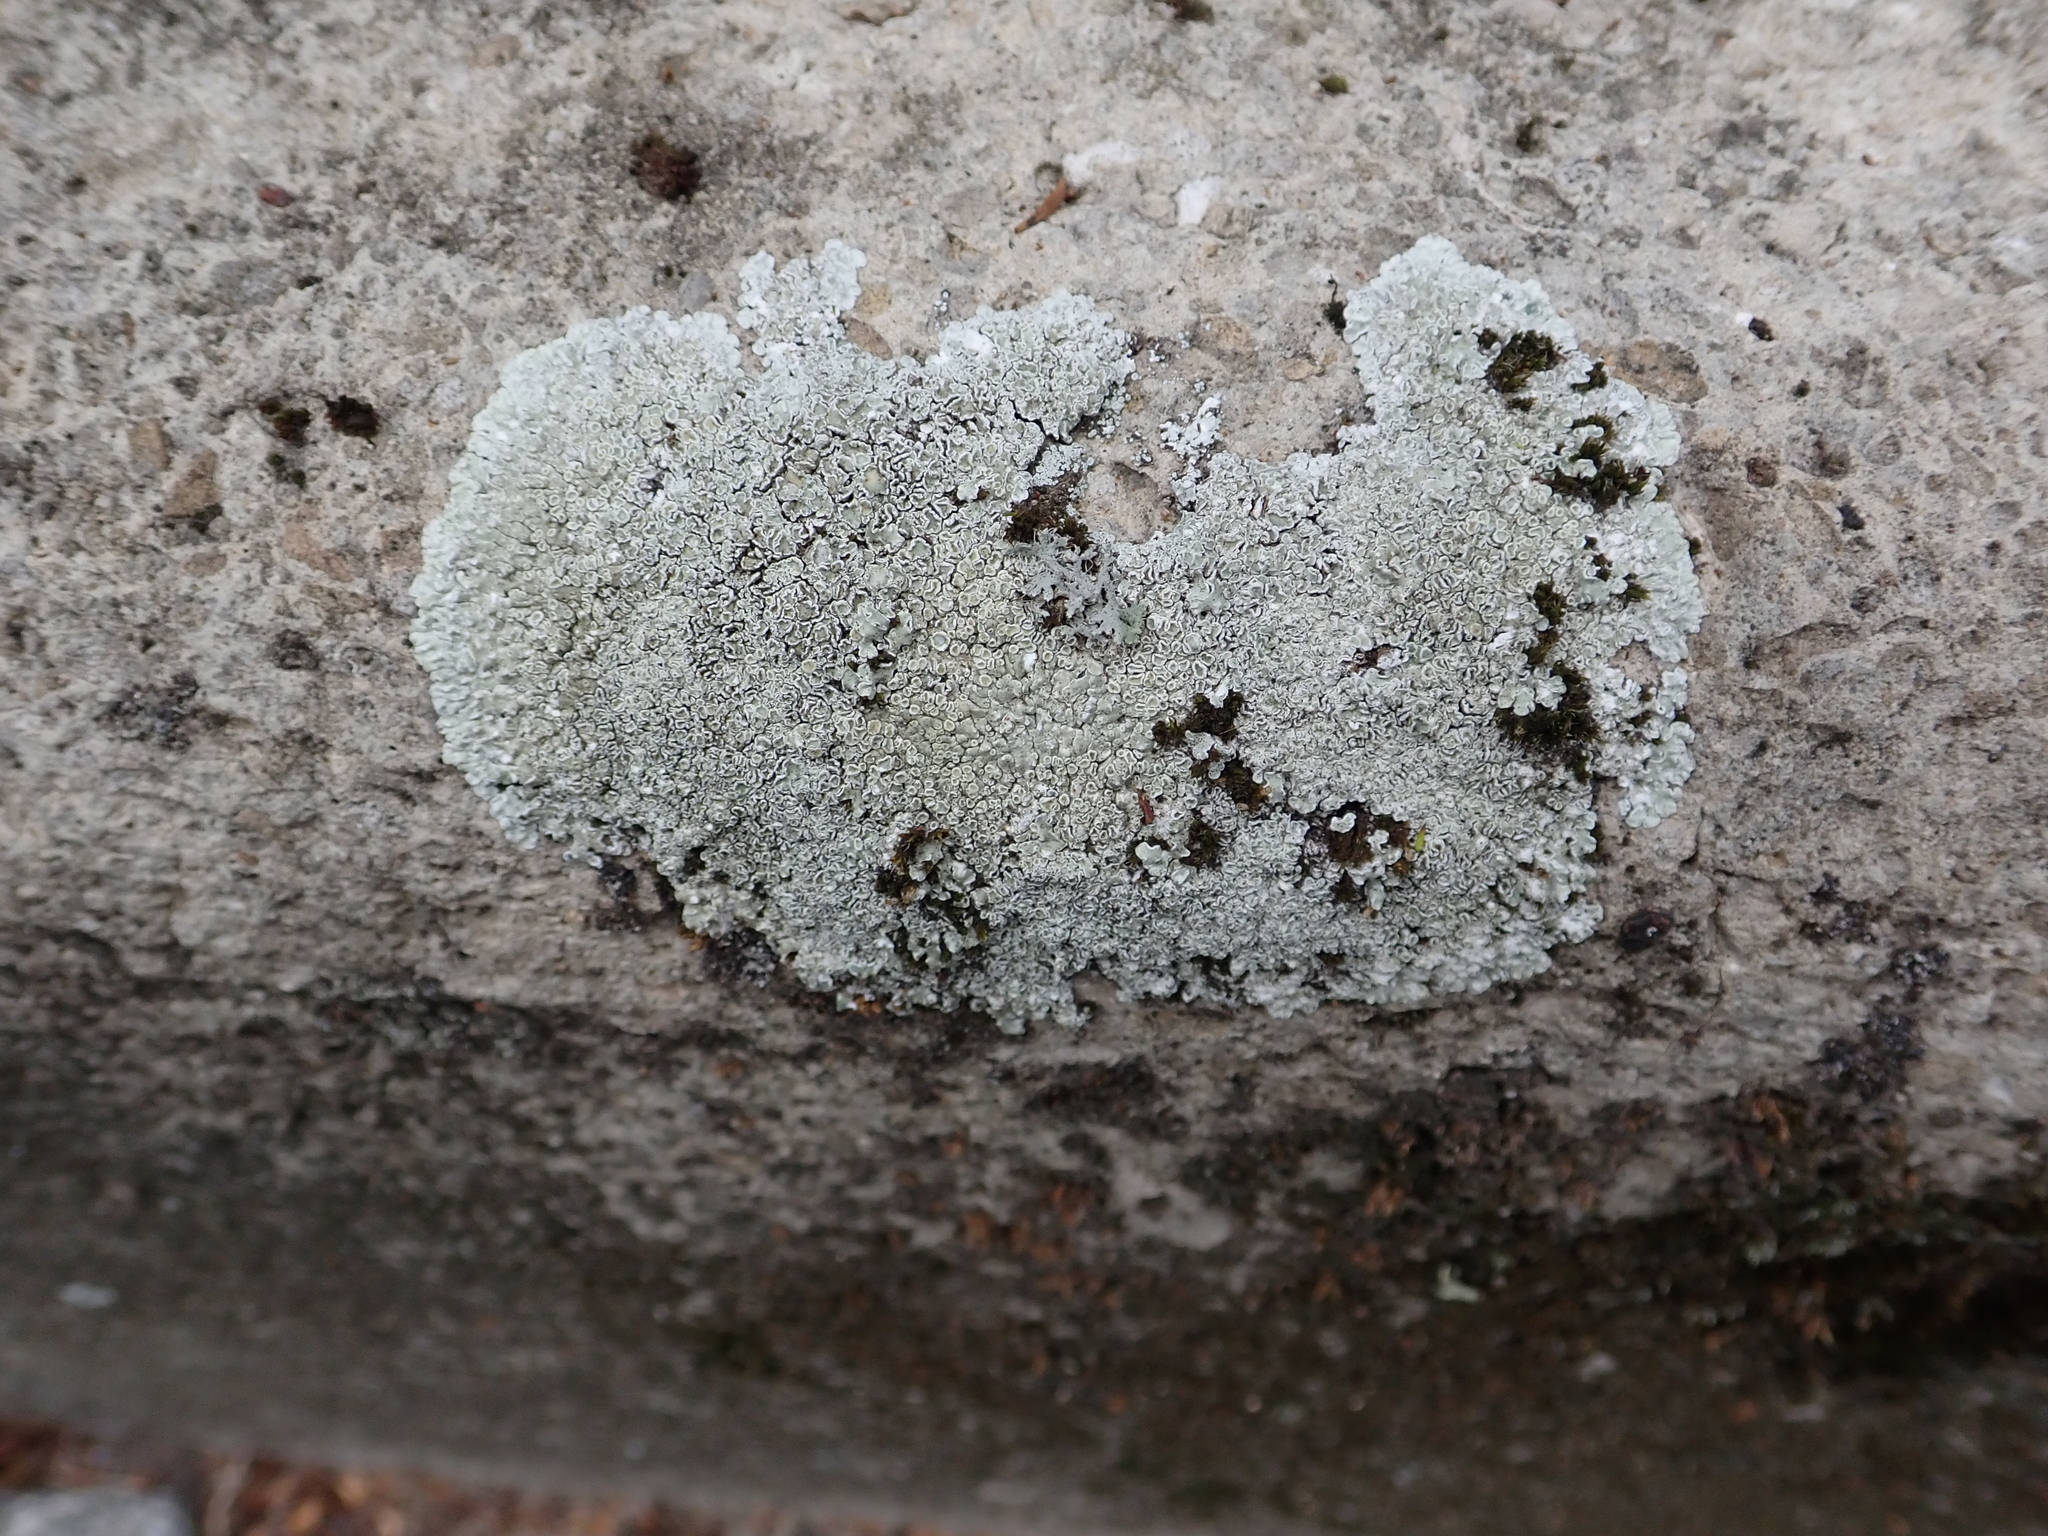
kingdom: Fungi
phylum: Ascomycota
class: Lecanoromycetes
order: Lecanorales
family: Lecanoraceae
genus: Protoparmeliopsis
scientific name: Protoparmeliopsis muralis
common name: Stonewall rim lichen
